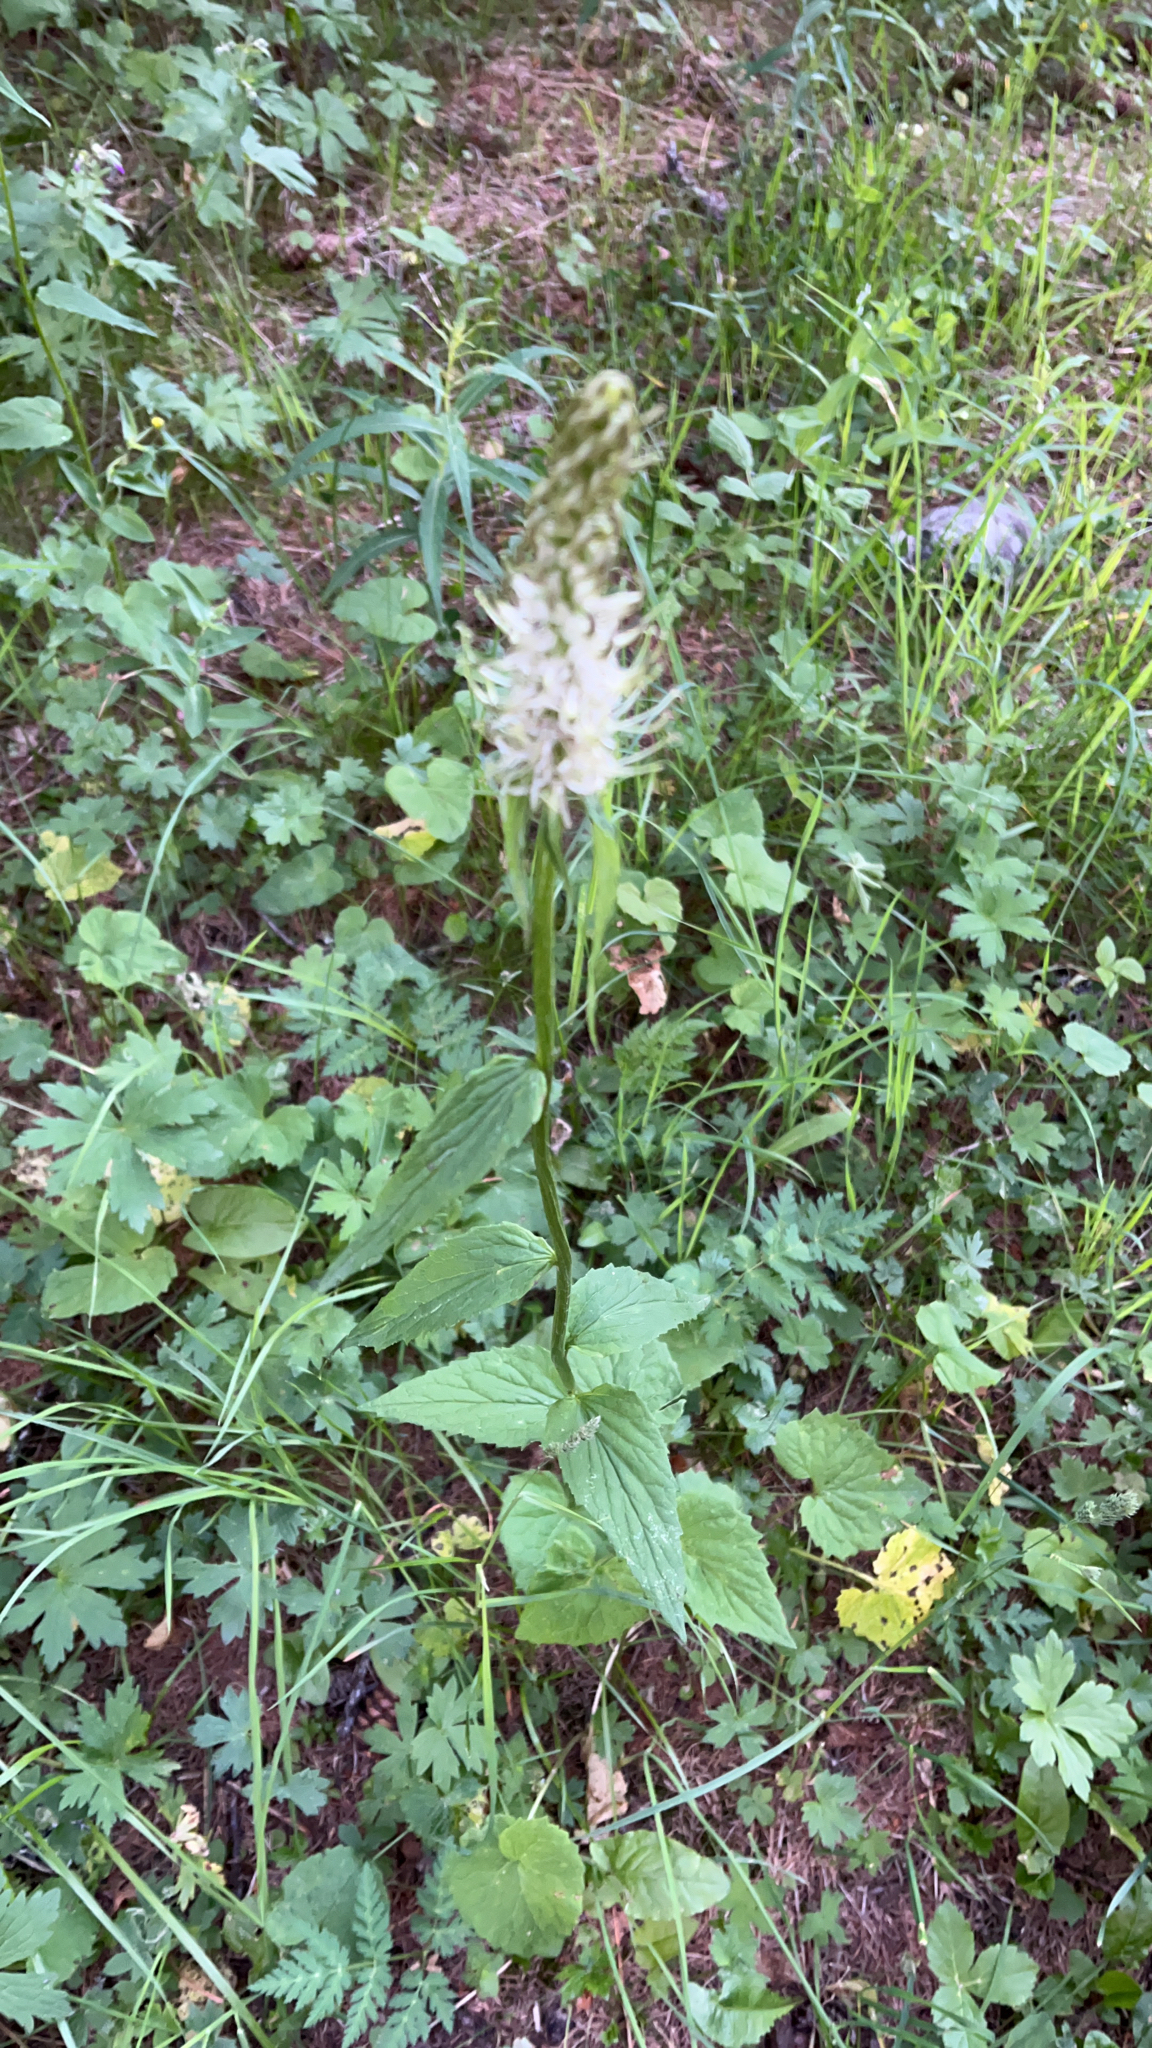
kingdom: Plantae
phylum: Tracheophyta
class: Magnoliopsida
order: Asterales
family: Campanulaceae
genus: Phyteuma
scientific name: Phyteuma spicatum
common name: Spiked rampion
